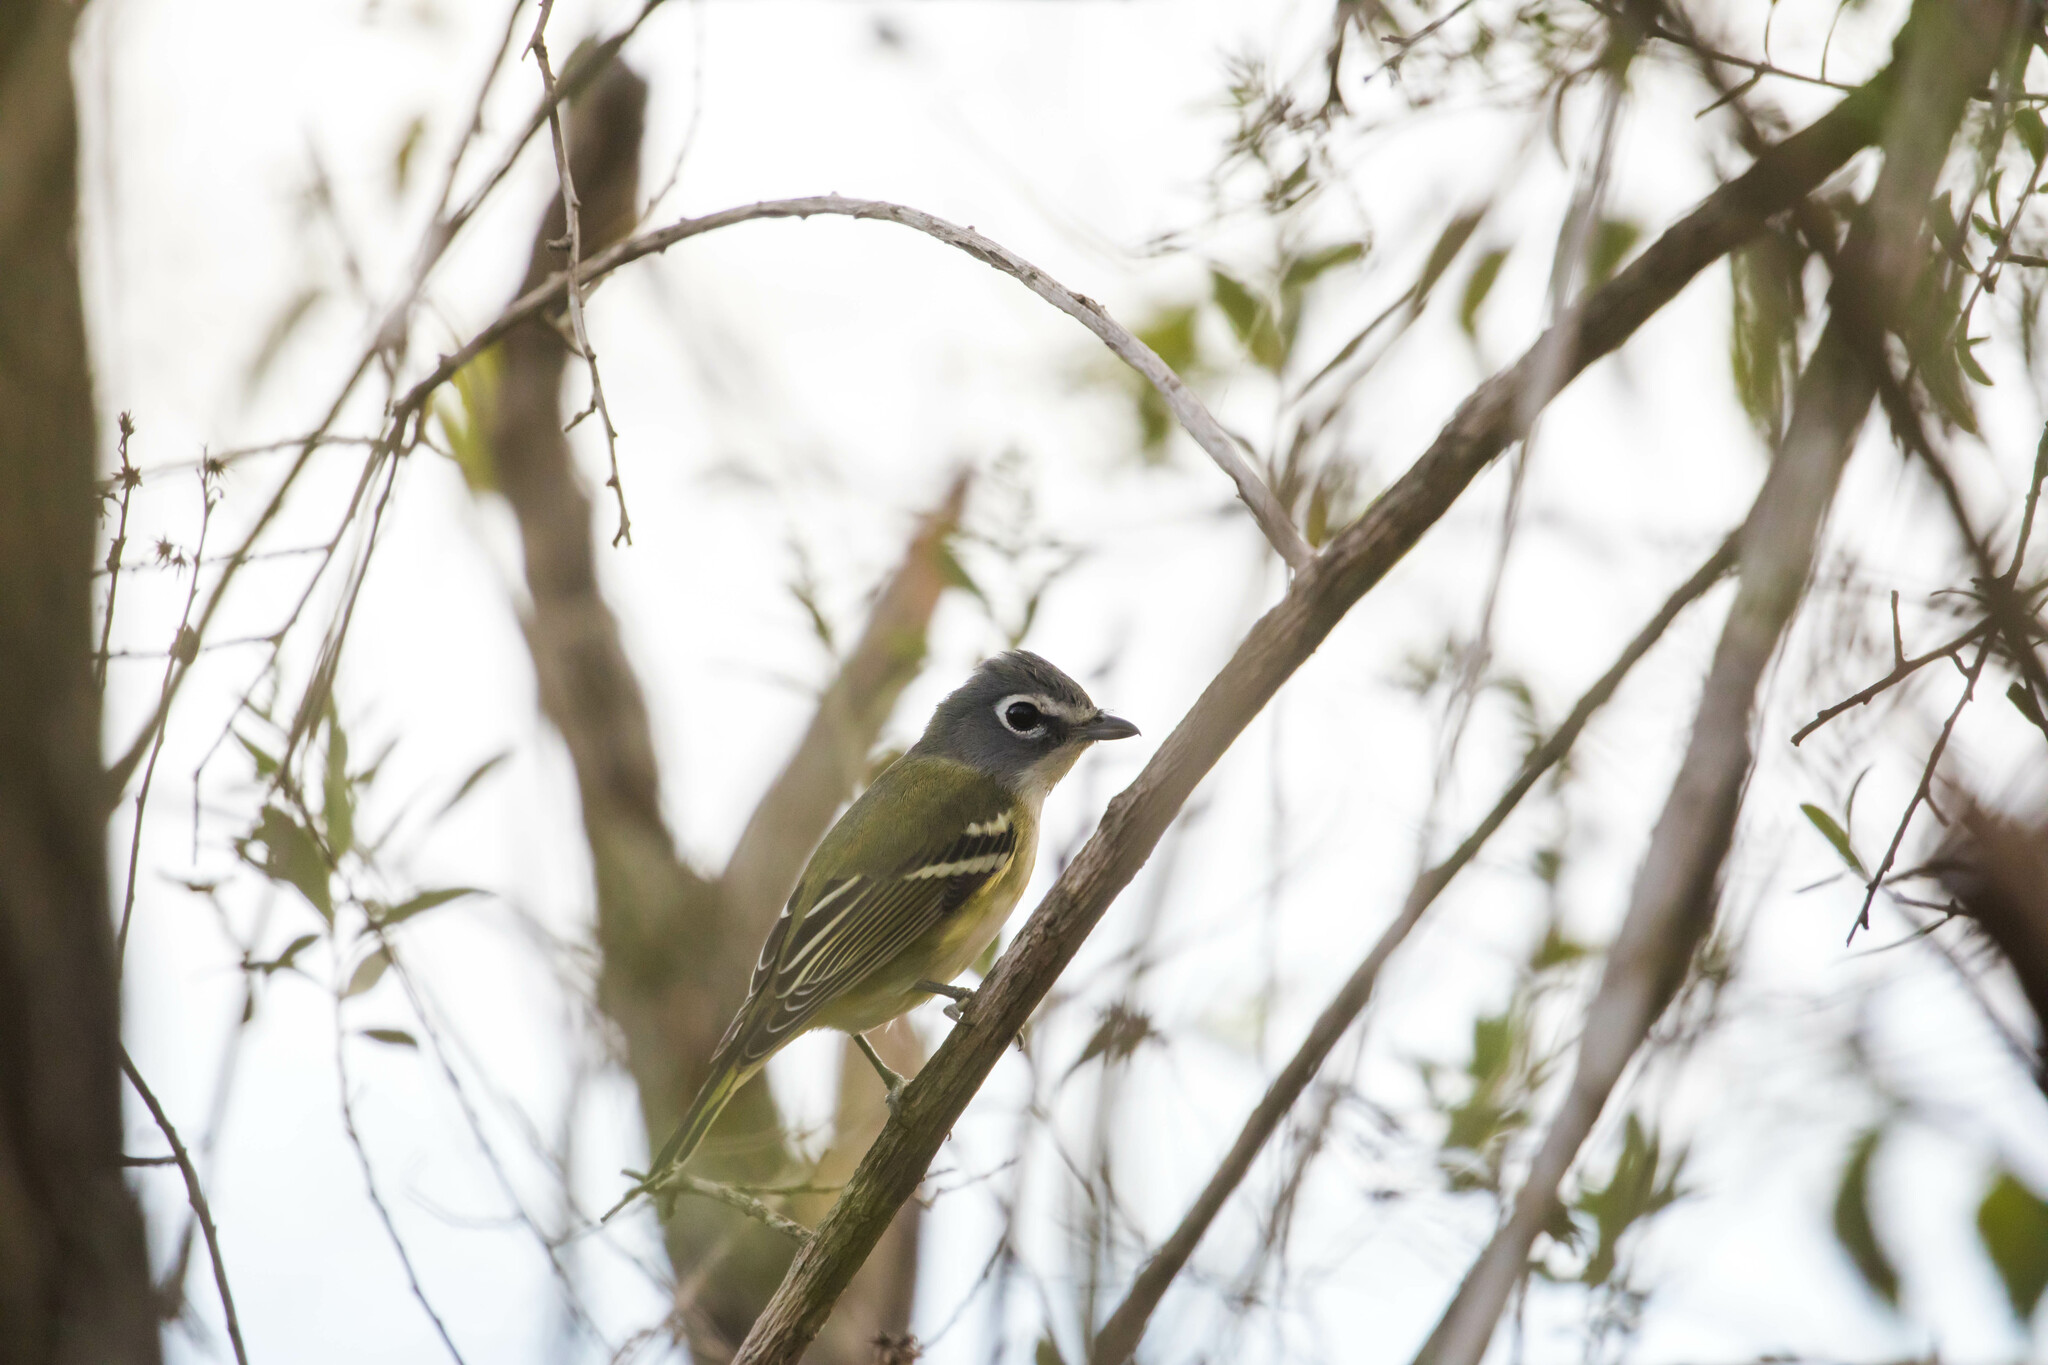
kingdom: Animalia
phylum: Chordata
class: Aves
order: Passeriformes
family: Vireonidae
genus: Vireo
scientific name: Vireo solitarius
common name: Blue-headed vireo
